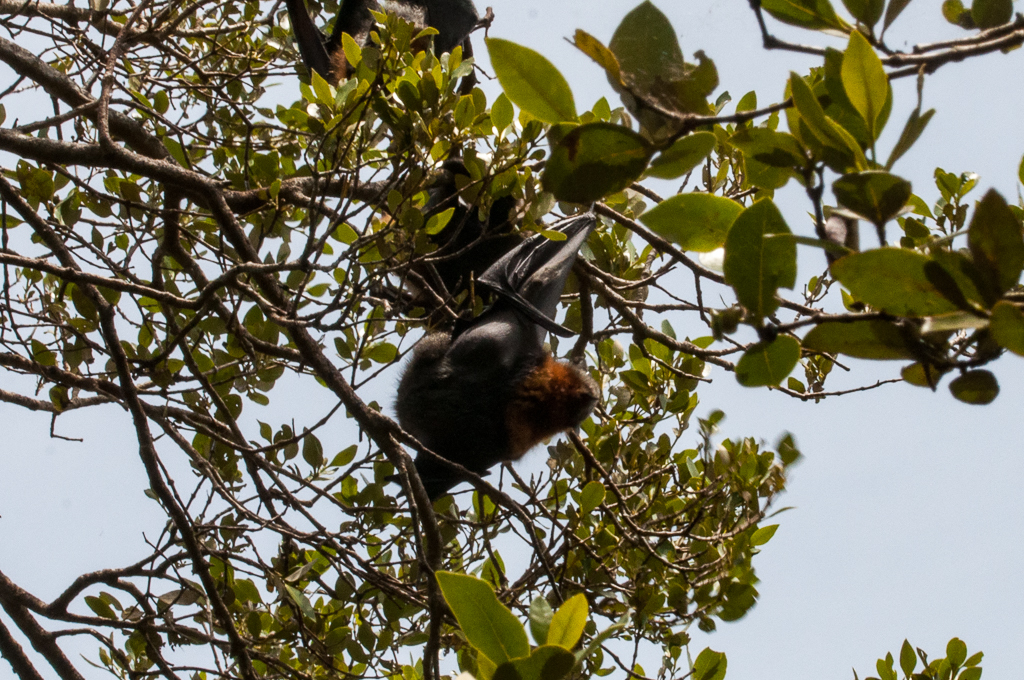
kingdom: Animalia
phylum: Chordata
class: Mammalia
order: Chiroptera
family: Pteropodidae
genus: Pteropus
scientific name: Pteropus poliocephalus
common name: Gray-headed flying fox
